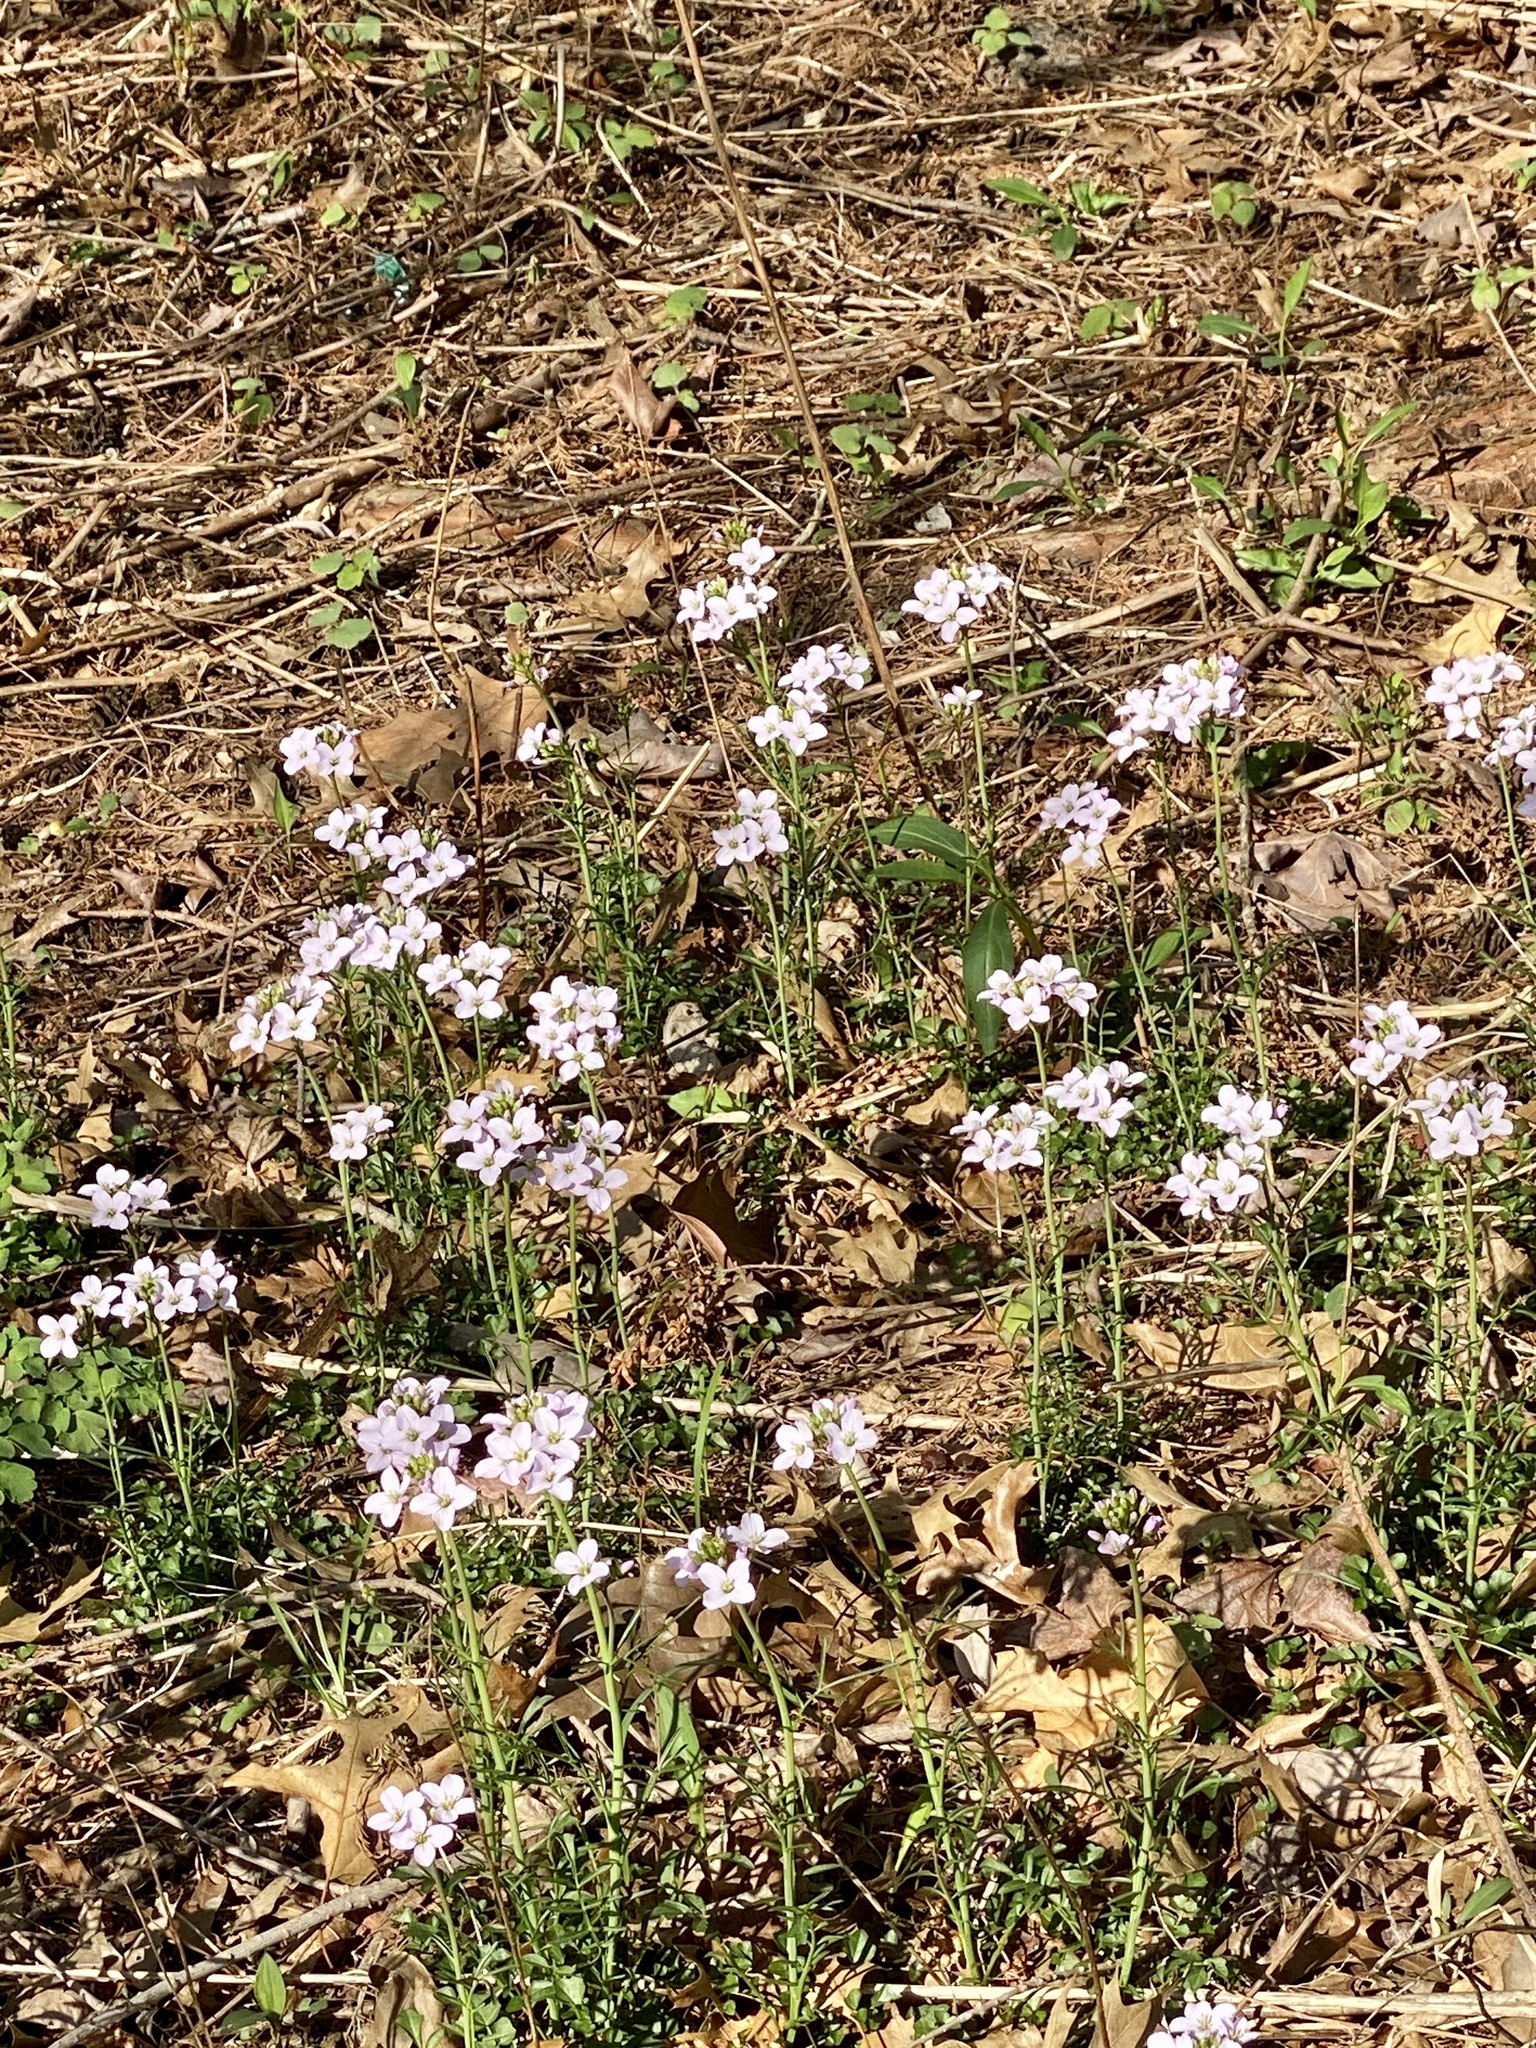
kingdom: Plantae
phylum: Tracheophyta
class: Magnoliopsida
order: Brassicales
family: Brassicaceae
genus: Cardamine
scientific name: Cardamine pratensis
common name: Cuckoo flower
